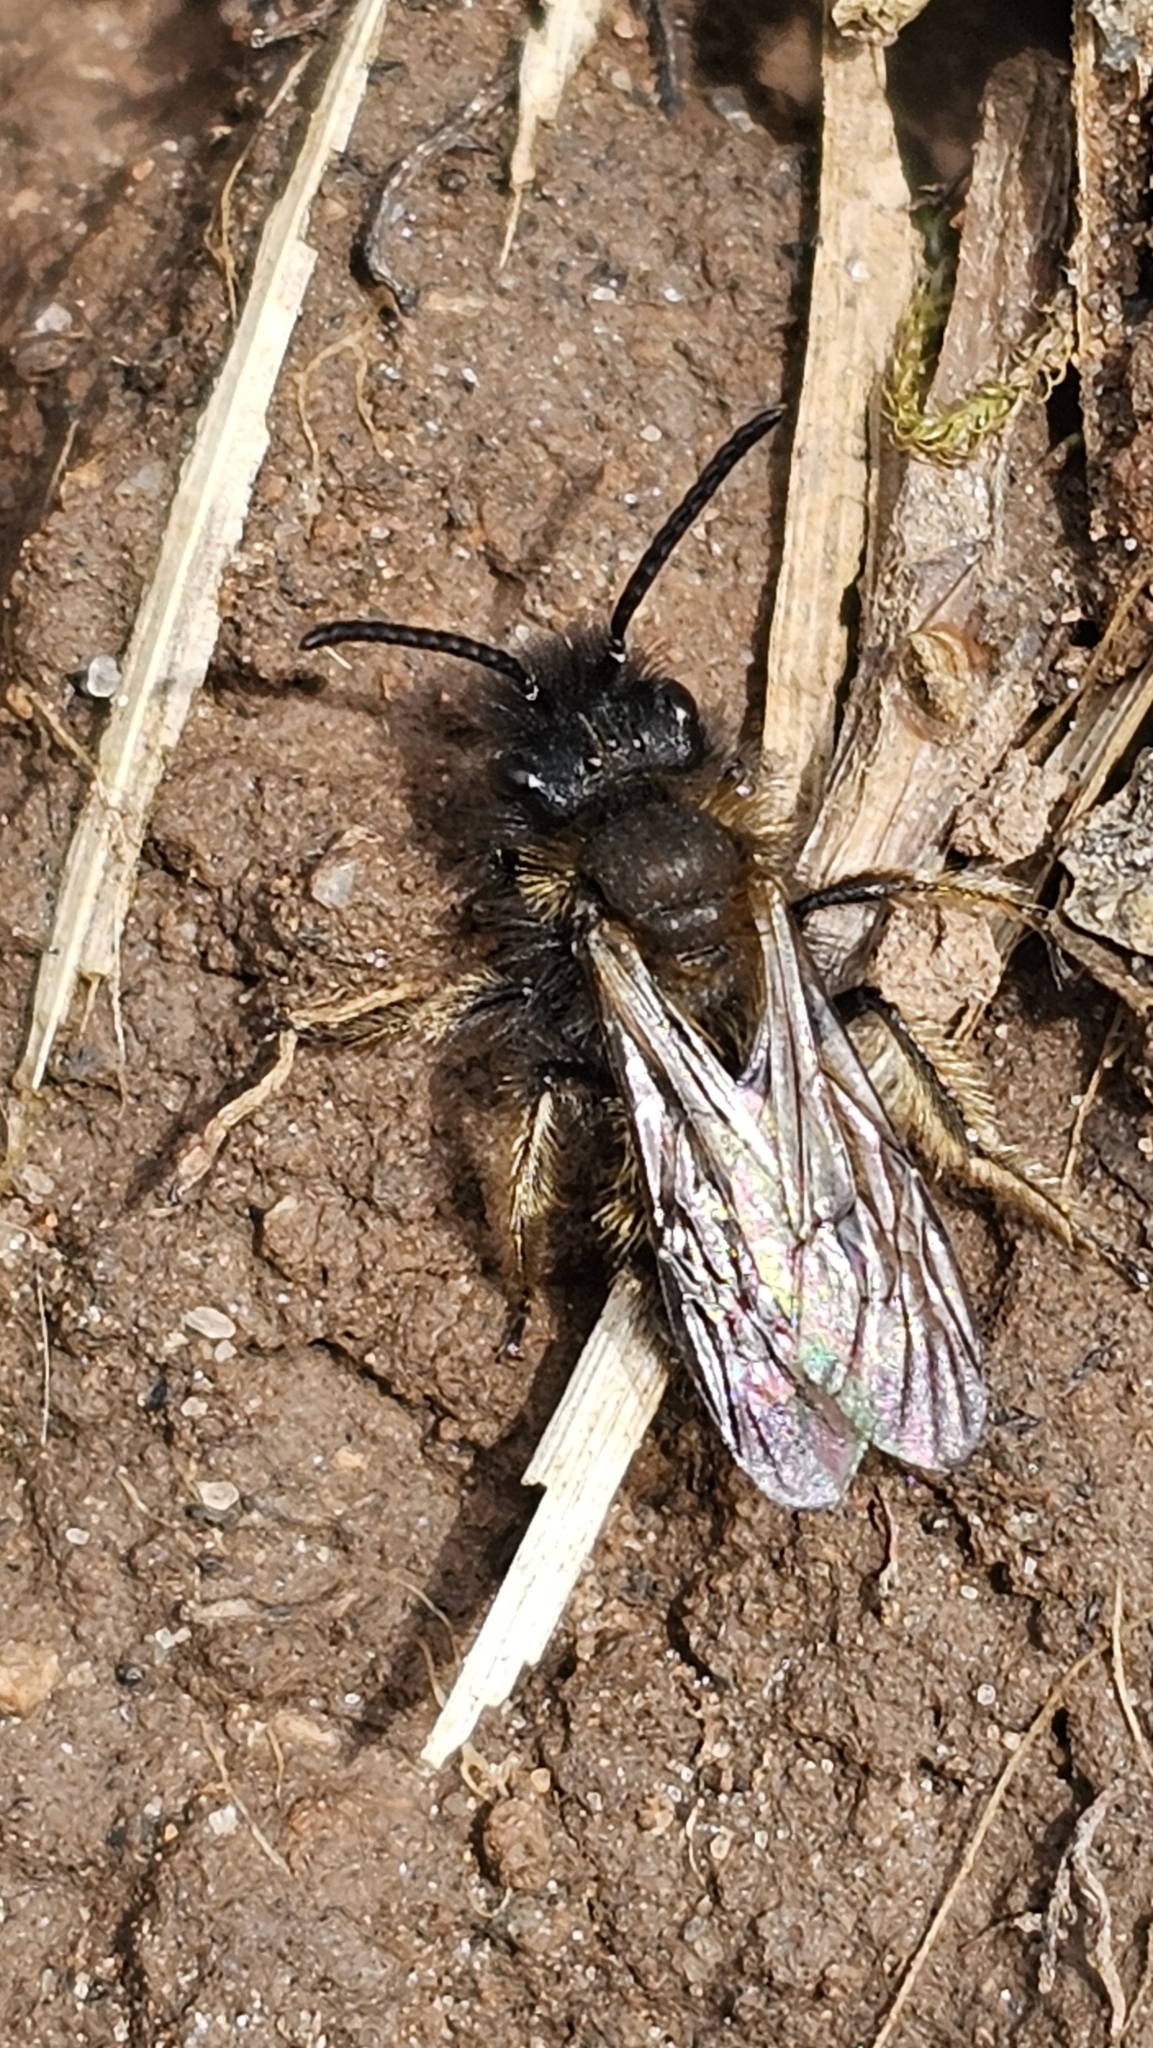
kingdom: Animalia
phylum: Arthropoda
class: Insecta
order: Hymenoptera
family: Andrenidae
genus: Andrena
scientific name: Andrena bicolor
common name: Gwynne's mining bee
